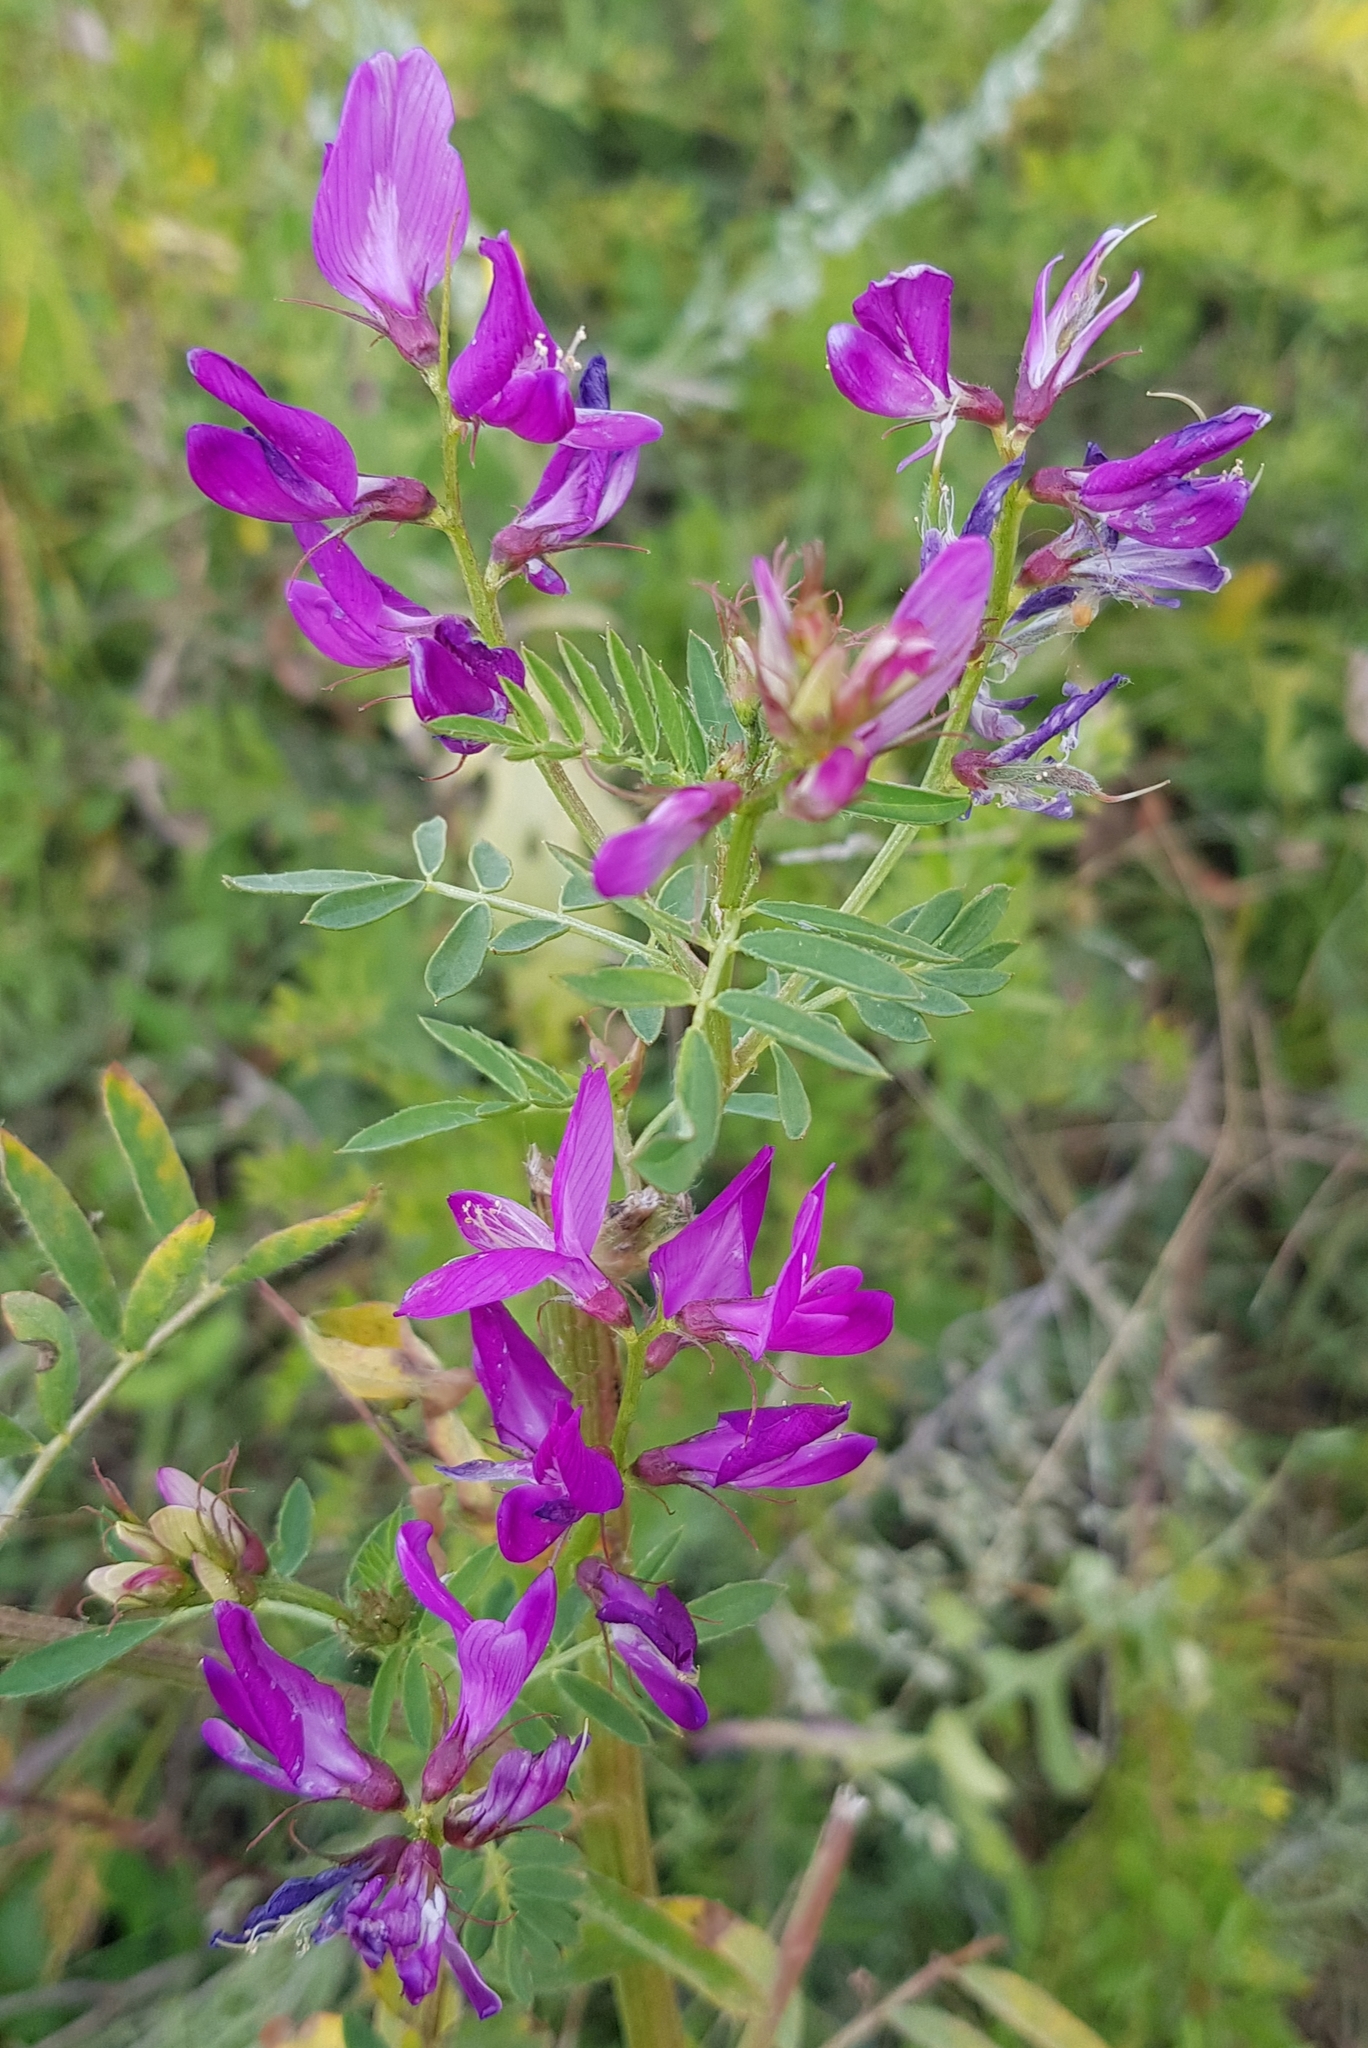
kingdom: Plantae
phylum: Tracheophyta
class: Magnoliopsida
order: Fabales
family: Fabaceae
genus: Astragalus
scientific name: Astragalus davuricus
